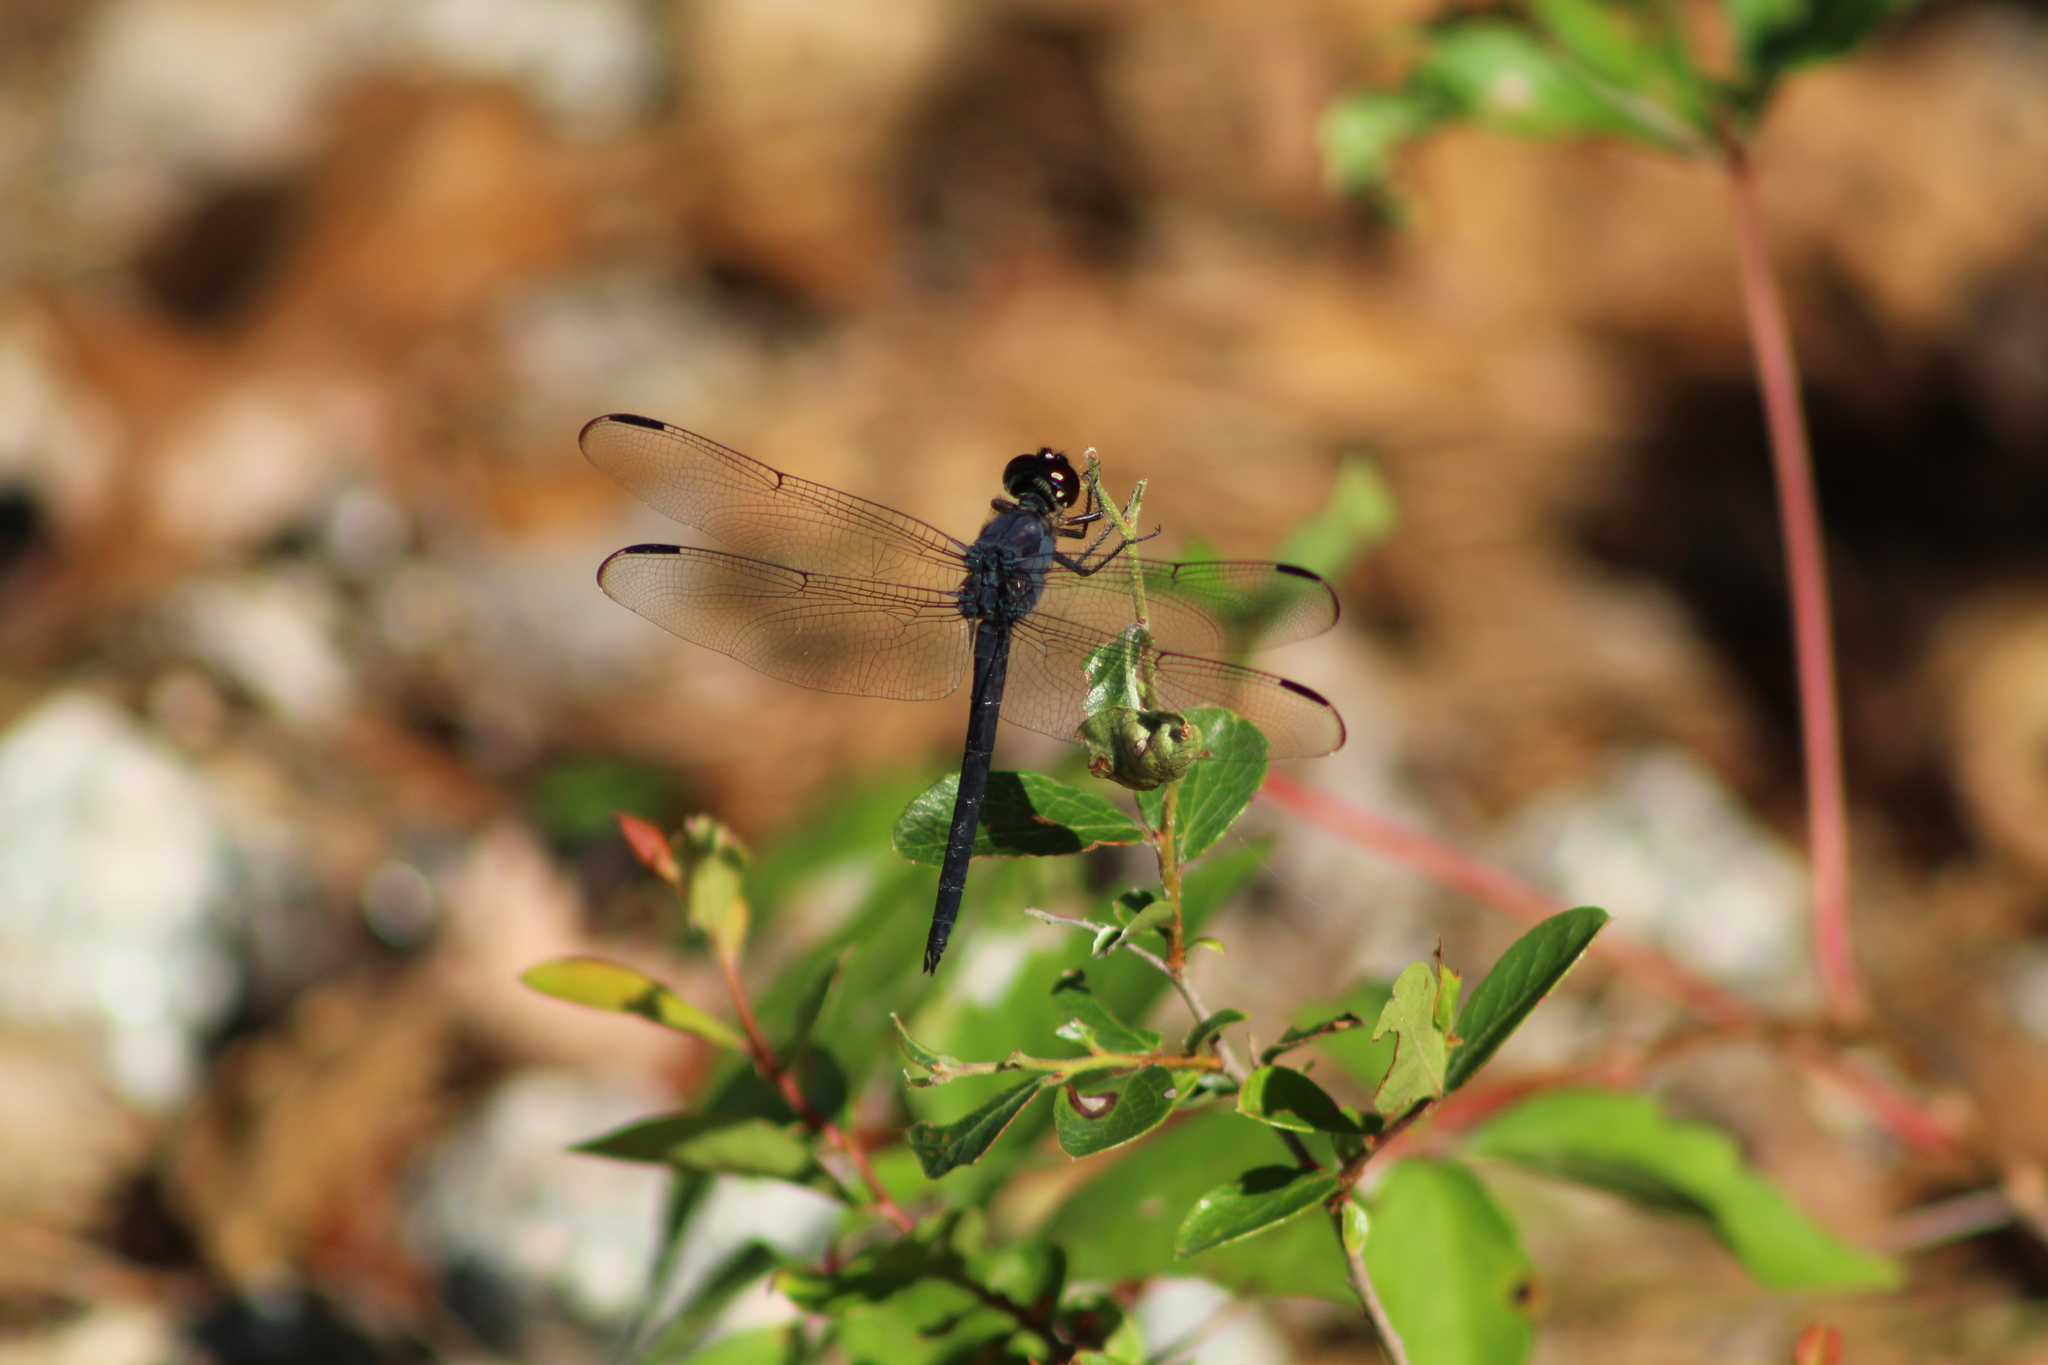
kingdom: Animalia
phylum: Arthropoda
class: Insecta
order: Odonata
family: Libellulidae
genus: Libellula
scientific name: Libellula incesta
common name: Slaty skimmer
